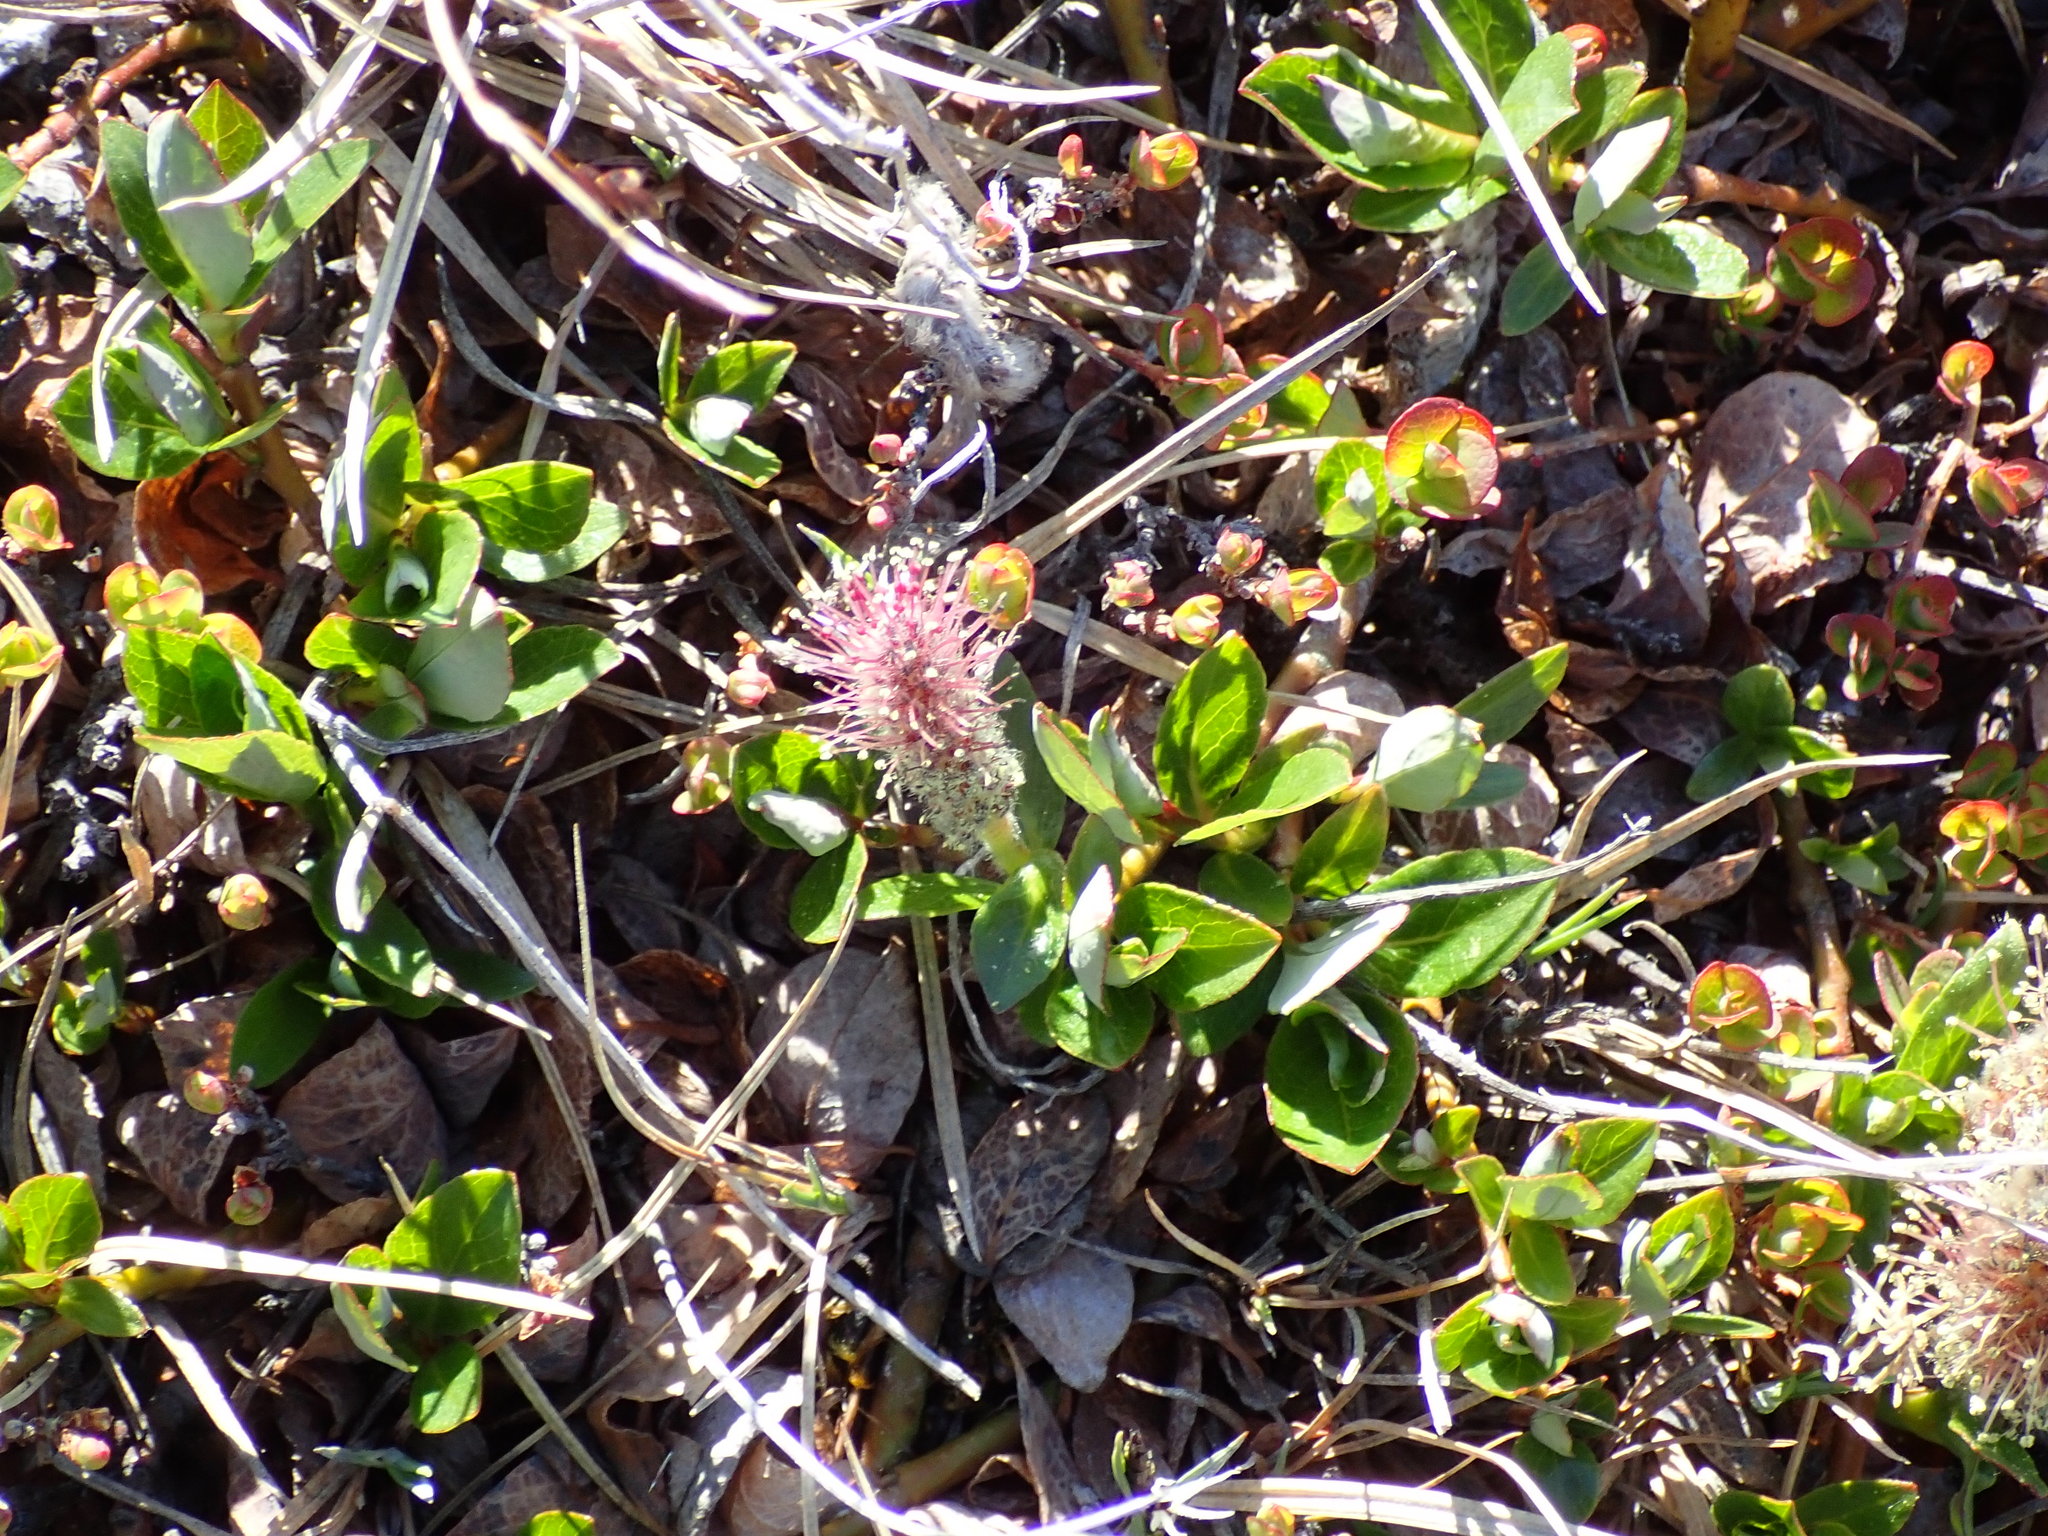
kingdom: Plantae
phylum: Tracheophyta
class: Magnoliopsida
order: Malpighiales
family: Salicaceae
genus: Salix
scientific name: Salix arctica
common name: Arctic willow
